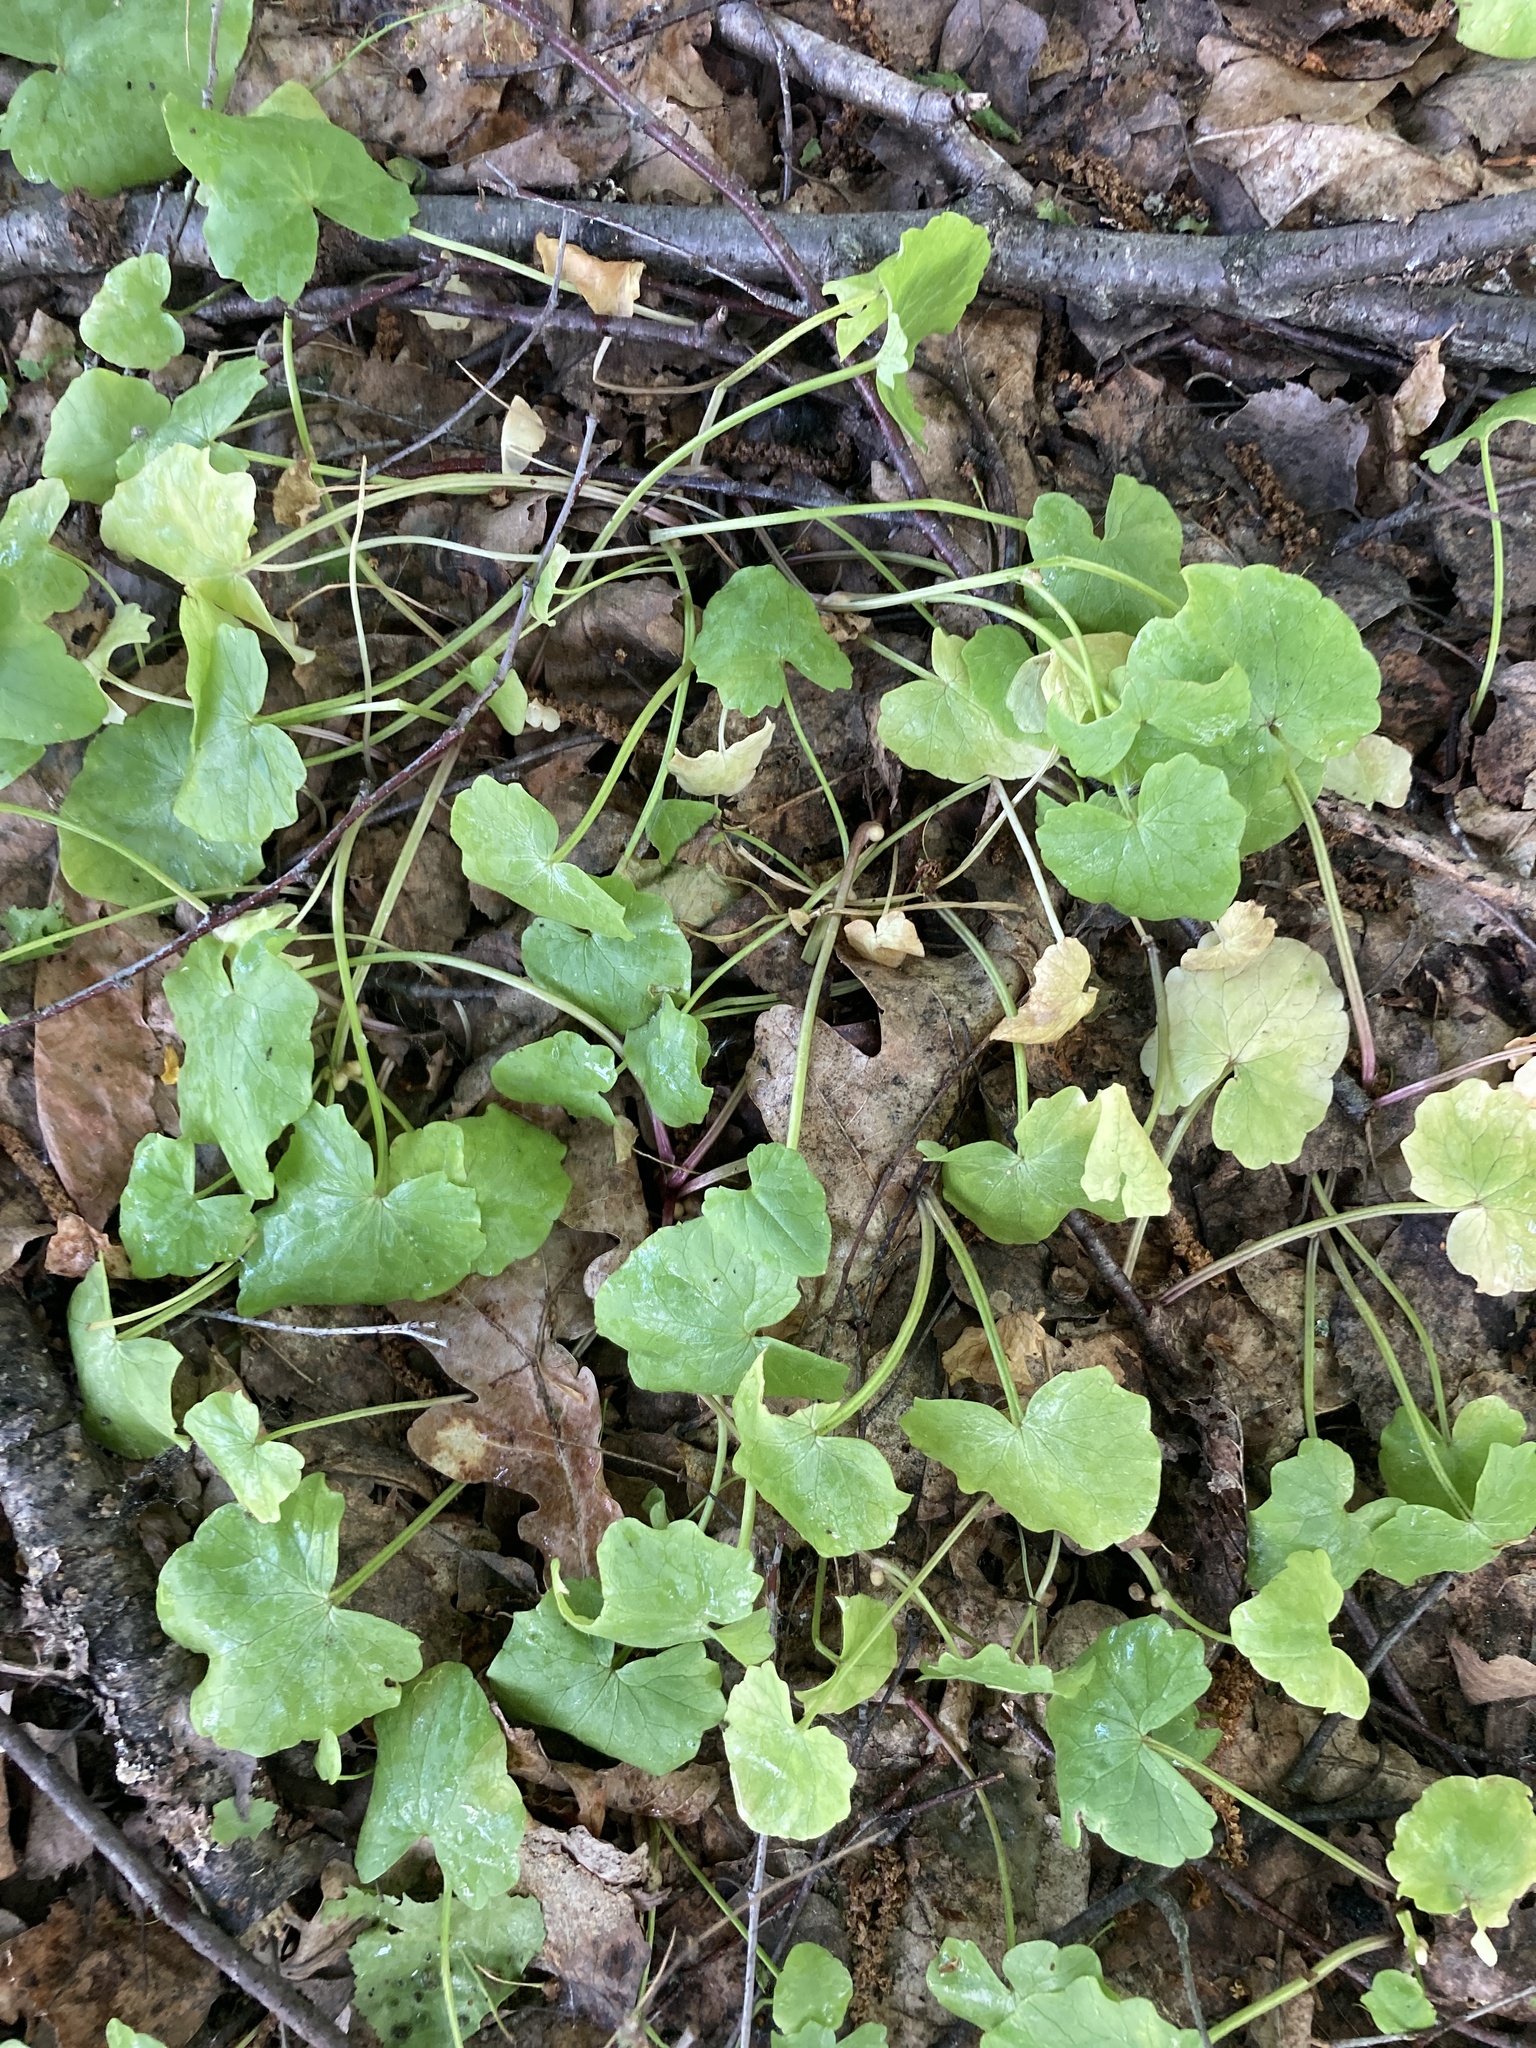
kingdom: Plantae
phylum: Tracheophyta
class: Magnoliopsida
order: Ranunculales
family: Ranunculaceae
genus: Ficaria
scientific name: Ficaria verna
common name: Lesser celandine
